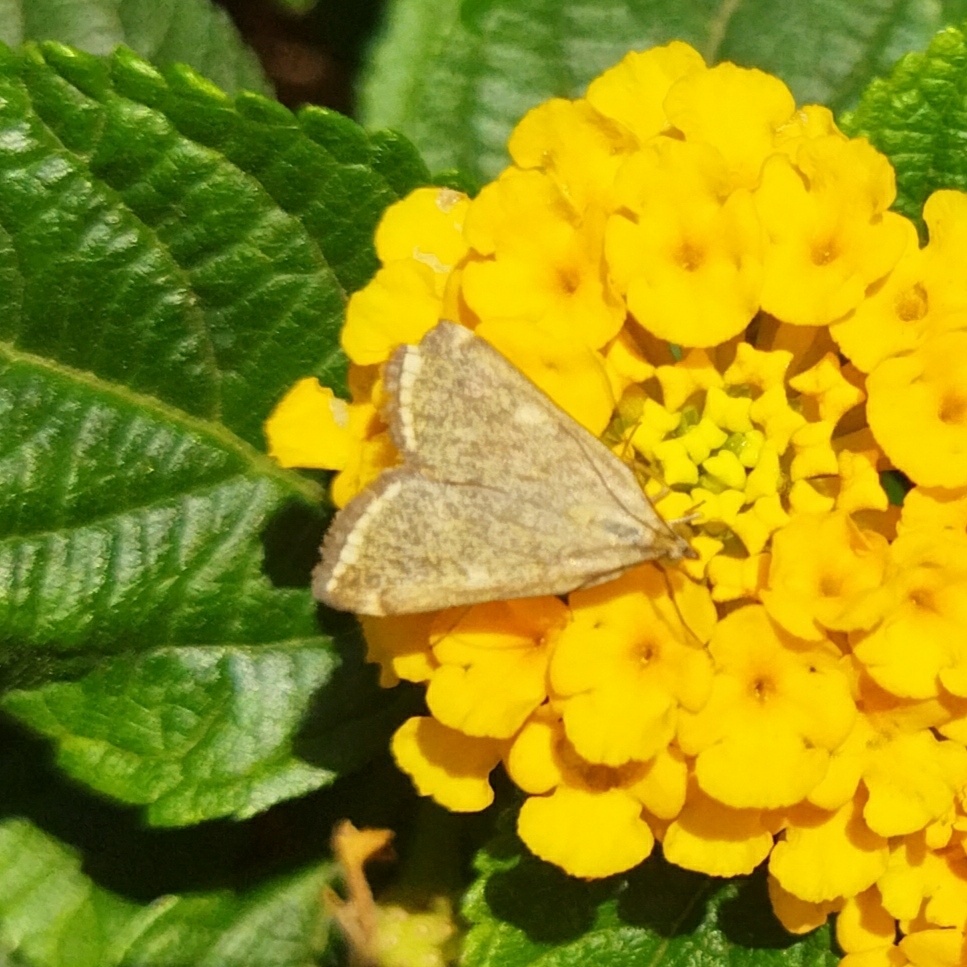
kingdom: Animalia
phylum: Arthropoda
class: Insecta
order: Lepidoptera
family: Crambidae
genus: Loxostege
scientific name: Loxostege sticticalis
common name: Crambid moth
